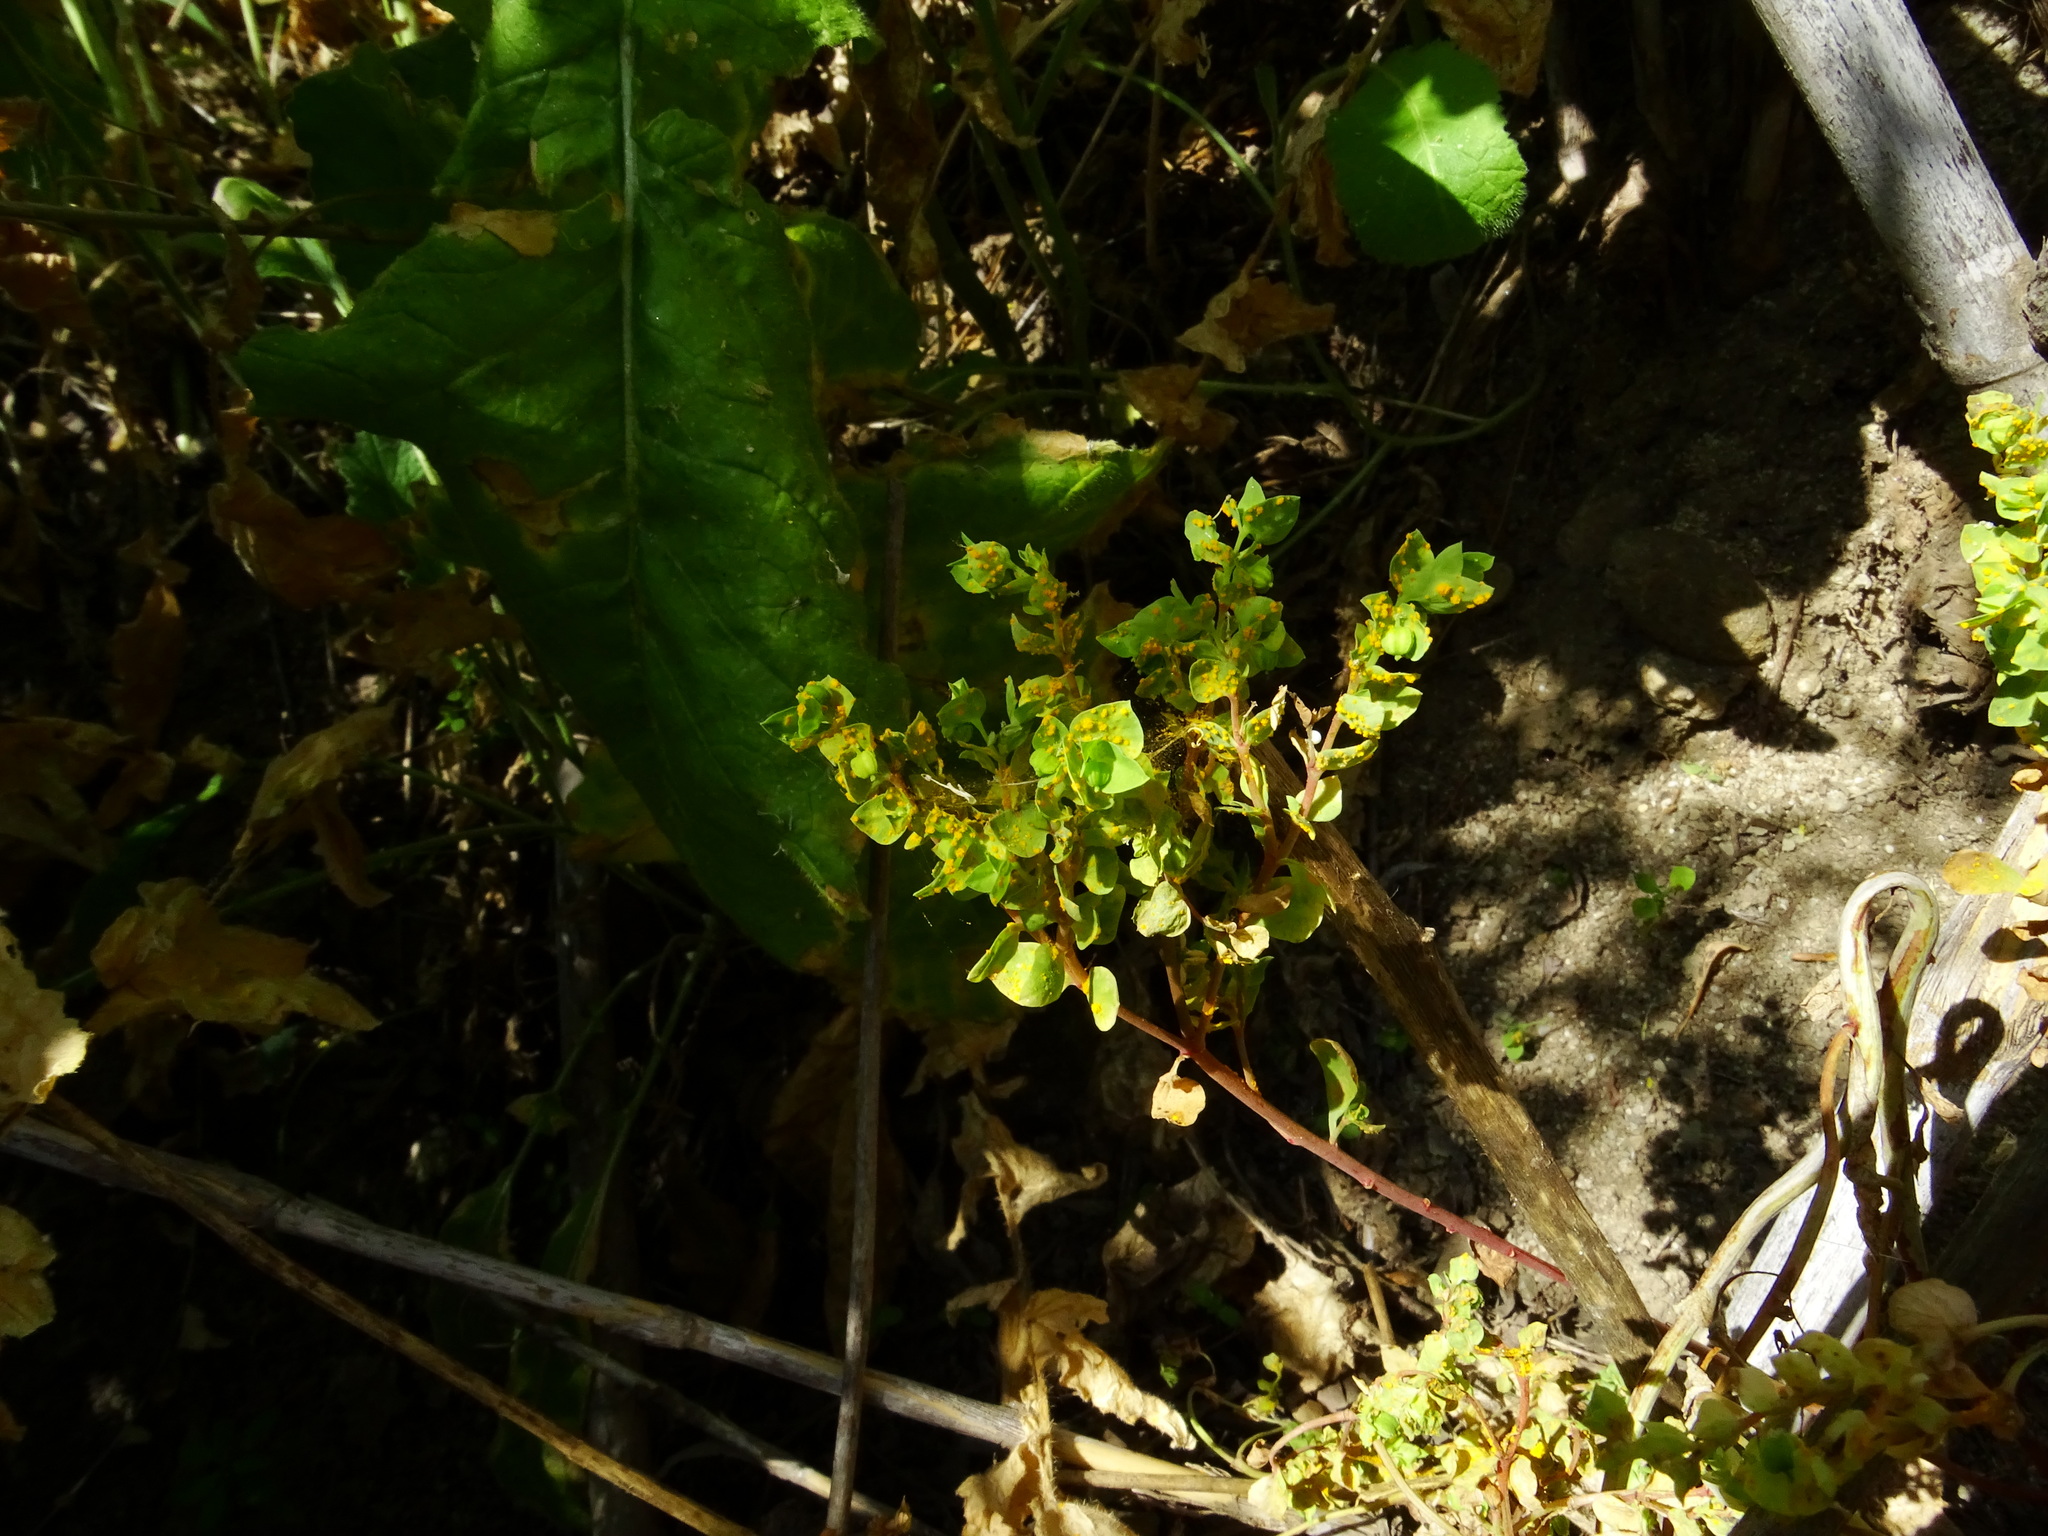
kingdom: Plantae
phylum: Tracheophyta
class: Magnoliopsida
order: Malpighiales
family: Euphorbiaceae
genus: Euphorbia
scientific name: Euphorbia peplus
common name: Petty spurge
